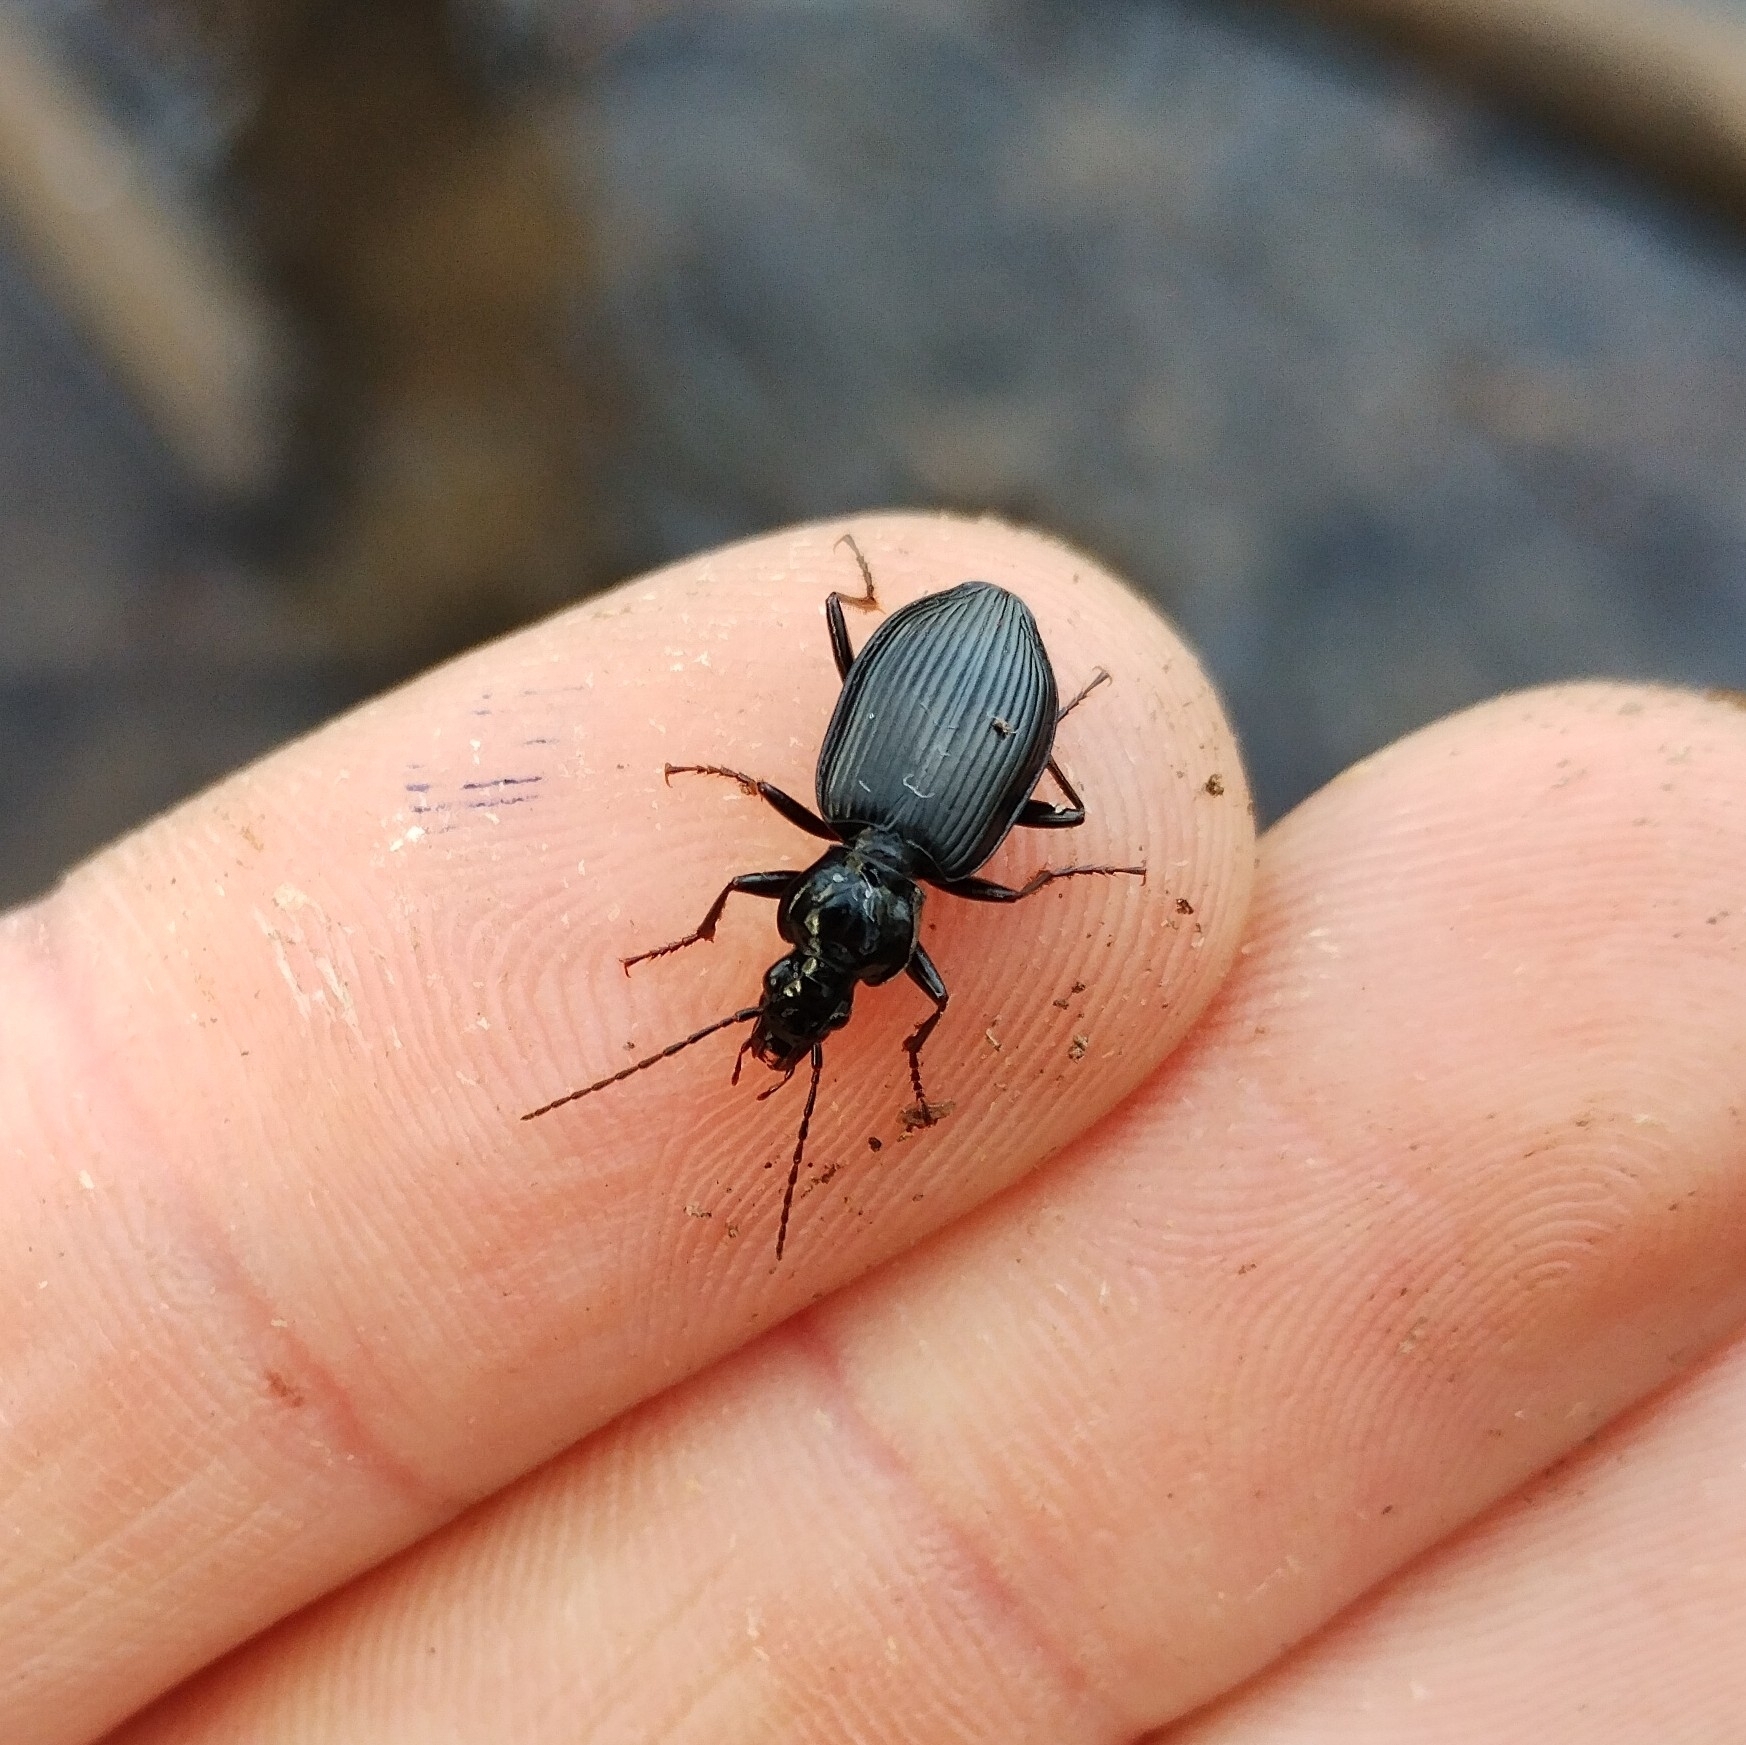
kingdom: Animalia
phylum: Arthropoda
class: Insecta
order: Coleoptera
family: Carabidae
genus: Platynus
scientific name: Platynus assimilis
